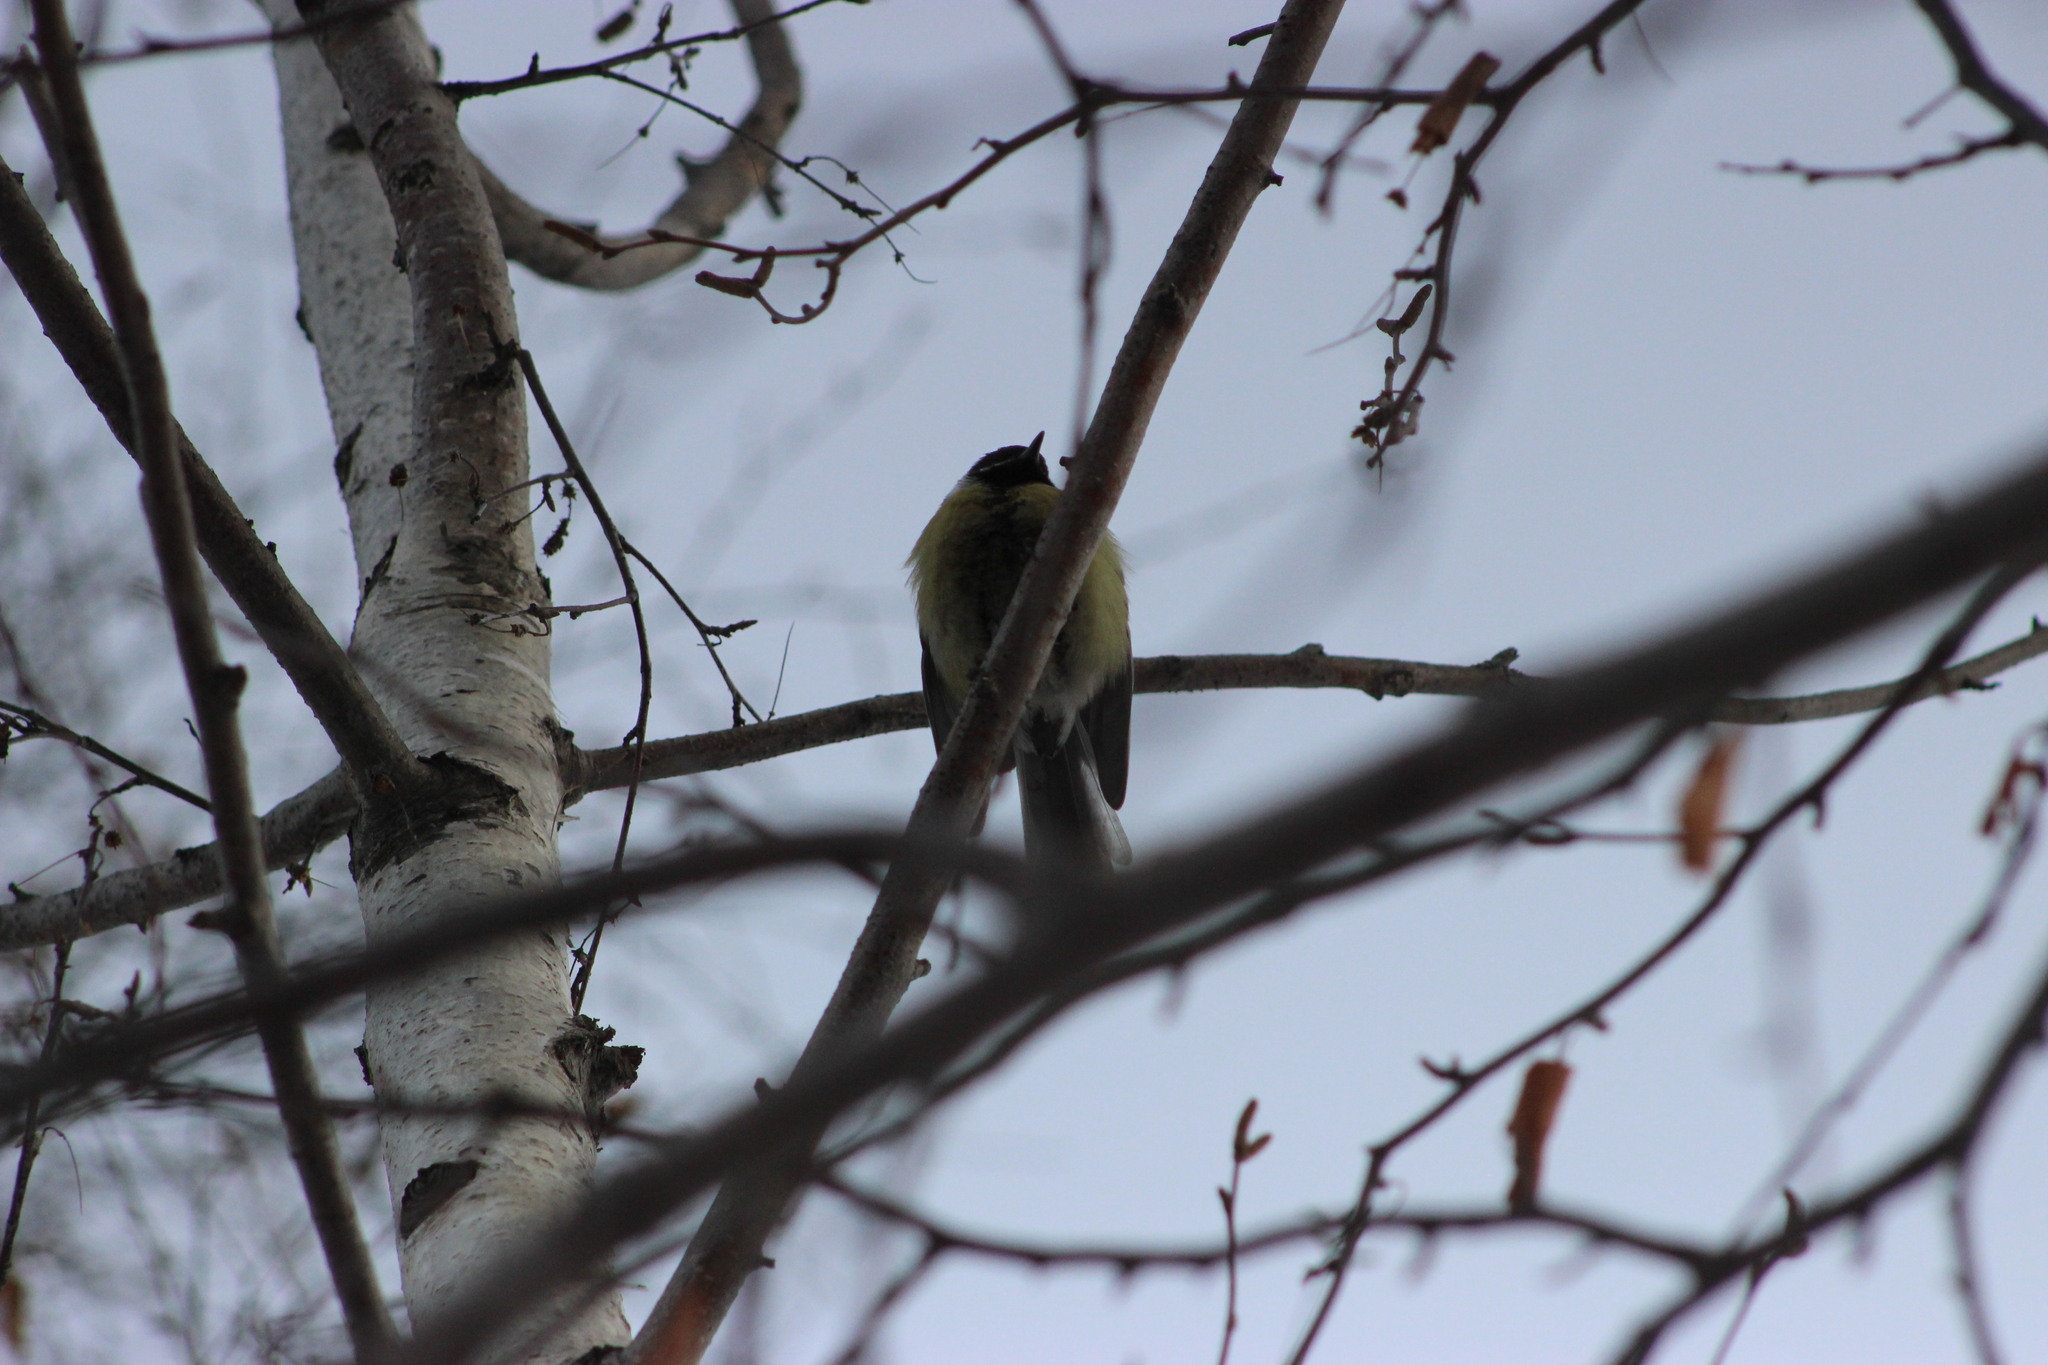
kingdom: Animalia
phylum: Chordata
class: Aves
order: Passeriformes
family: Paridae
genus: Parus
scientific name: Parus major
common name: Great tit
